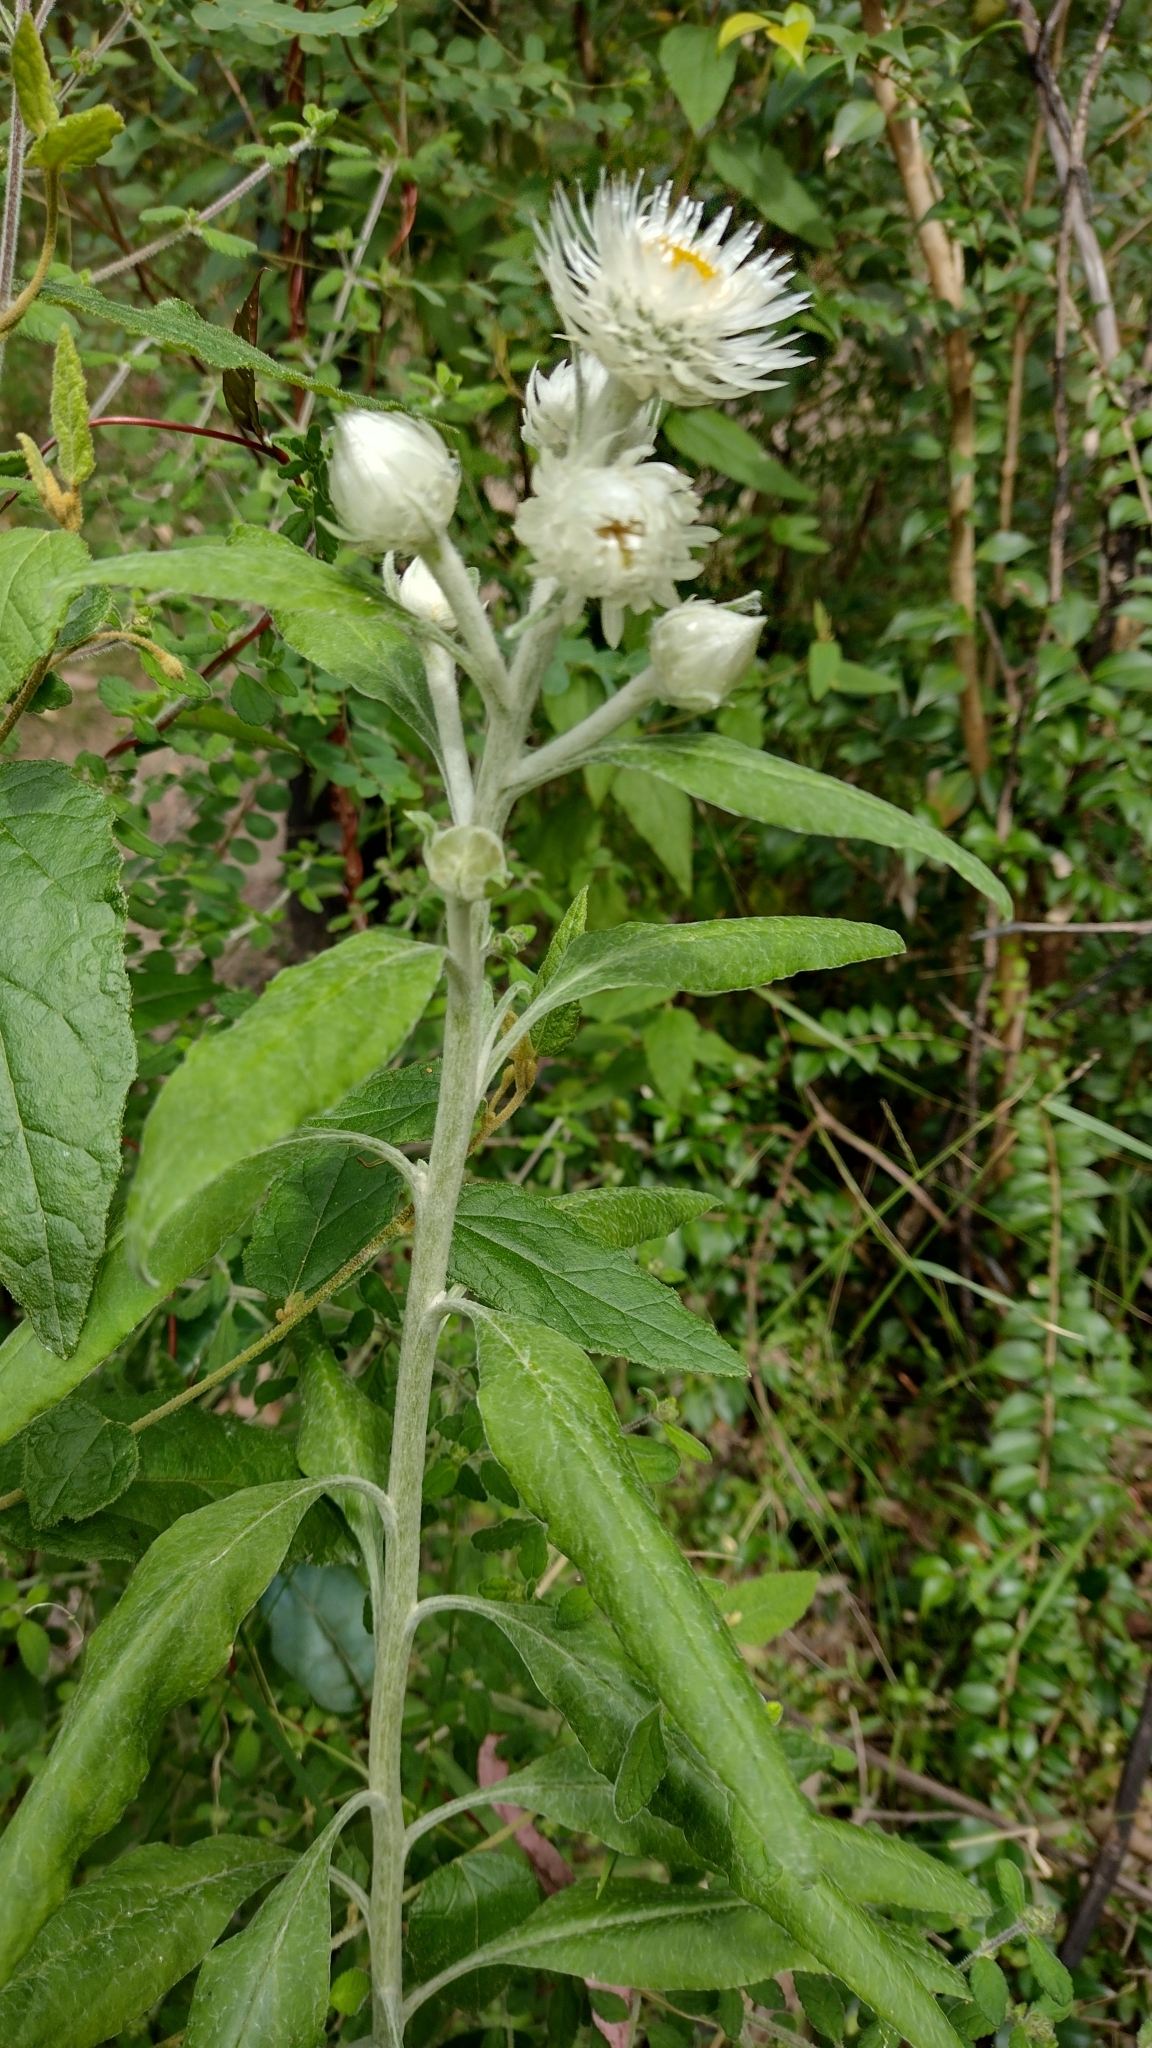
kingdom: Plantae
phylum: Tracheophyta
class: Magnoliopsida
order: Asterales
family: Asteraceae
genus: Leucozoma
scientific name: Leucozoma elatum
